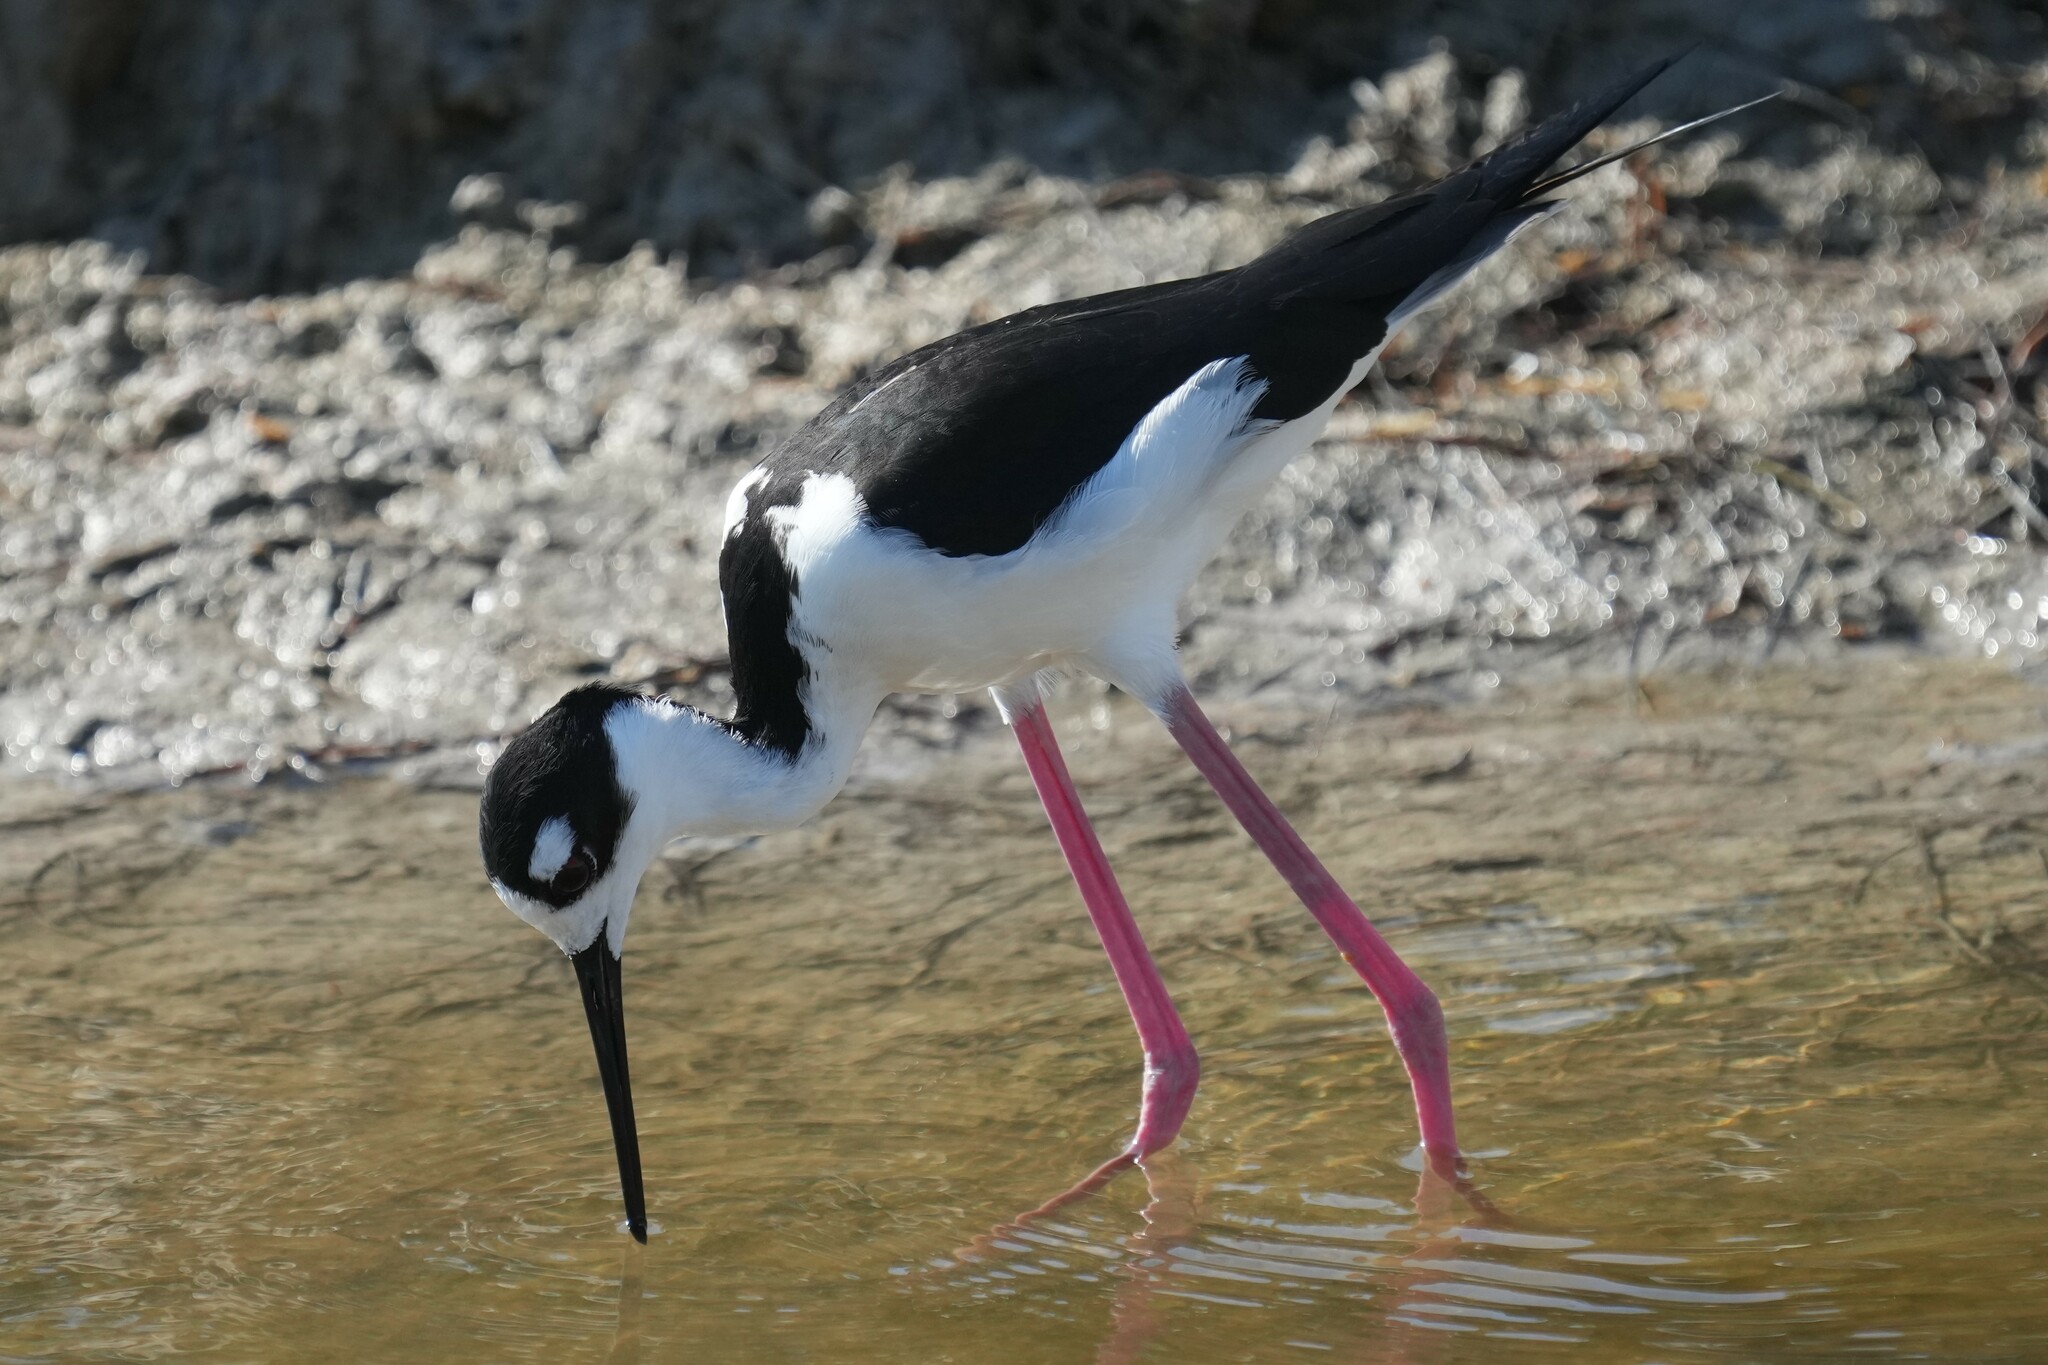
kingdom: Animalia
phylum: Chordata
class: Aves
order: Charadriiformes
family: Recurvirostridae
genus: Himantopus
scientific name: Himantopus mexicanus
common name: Black-necked stilt
